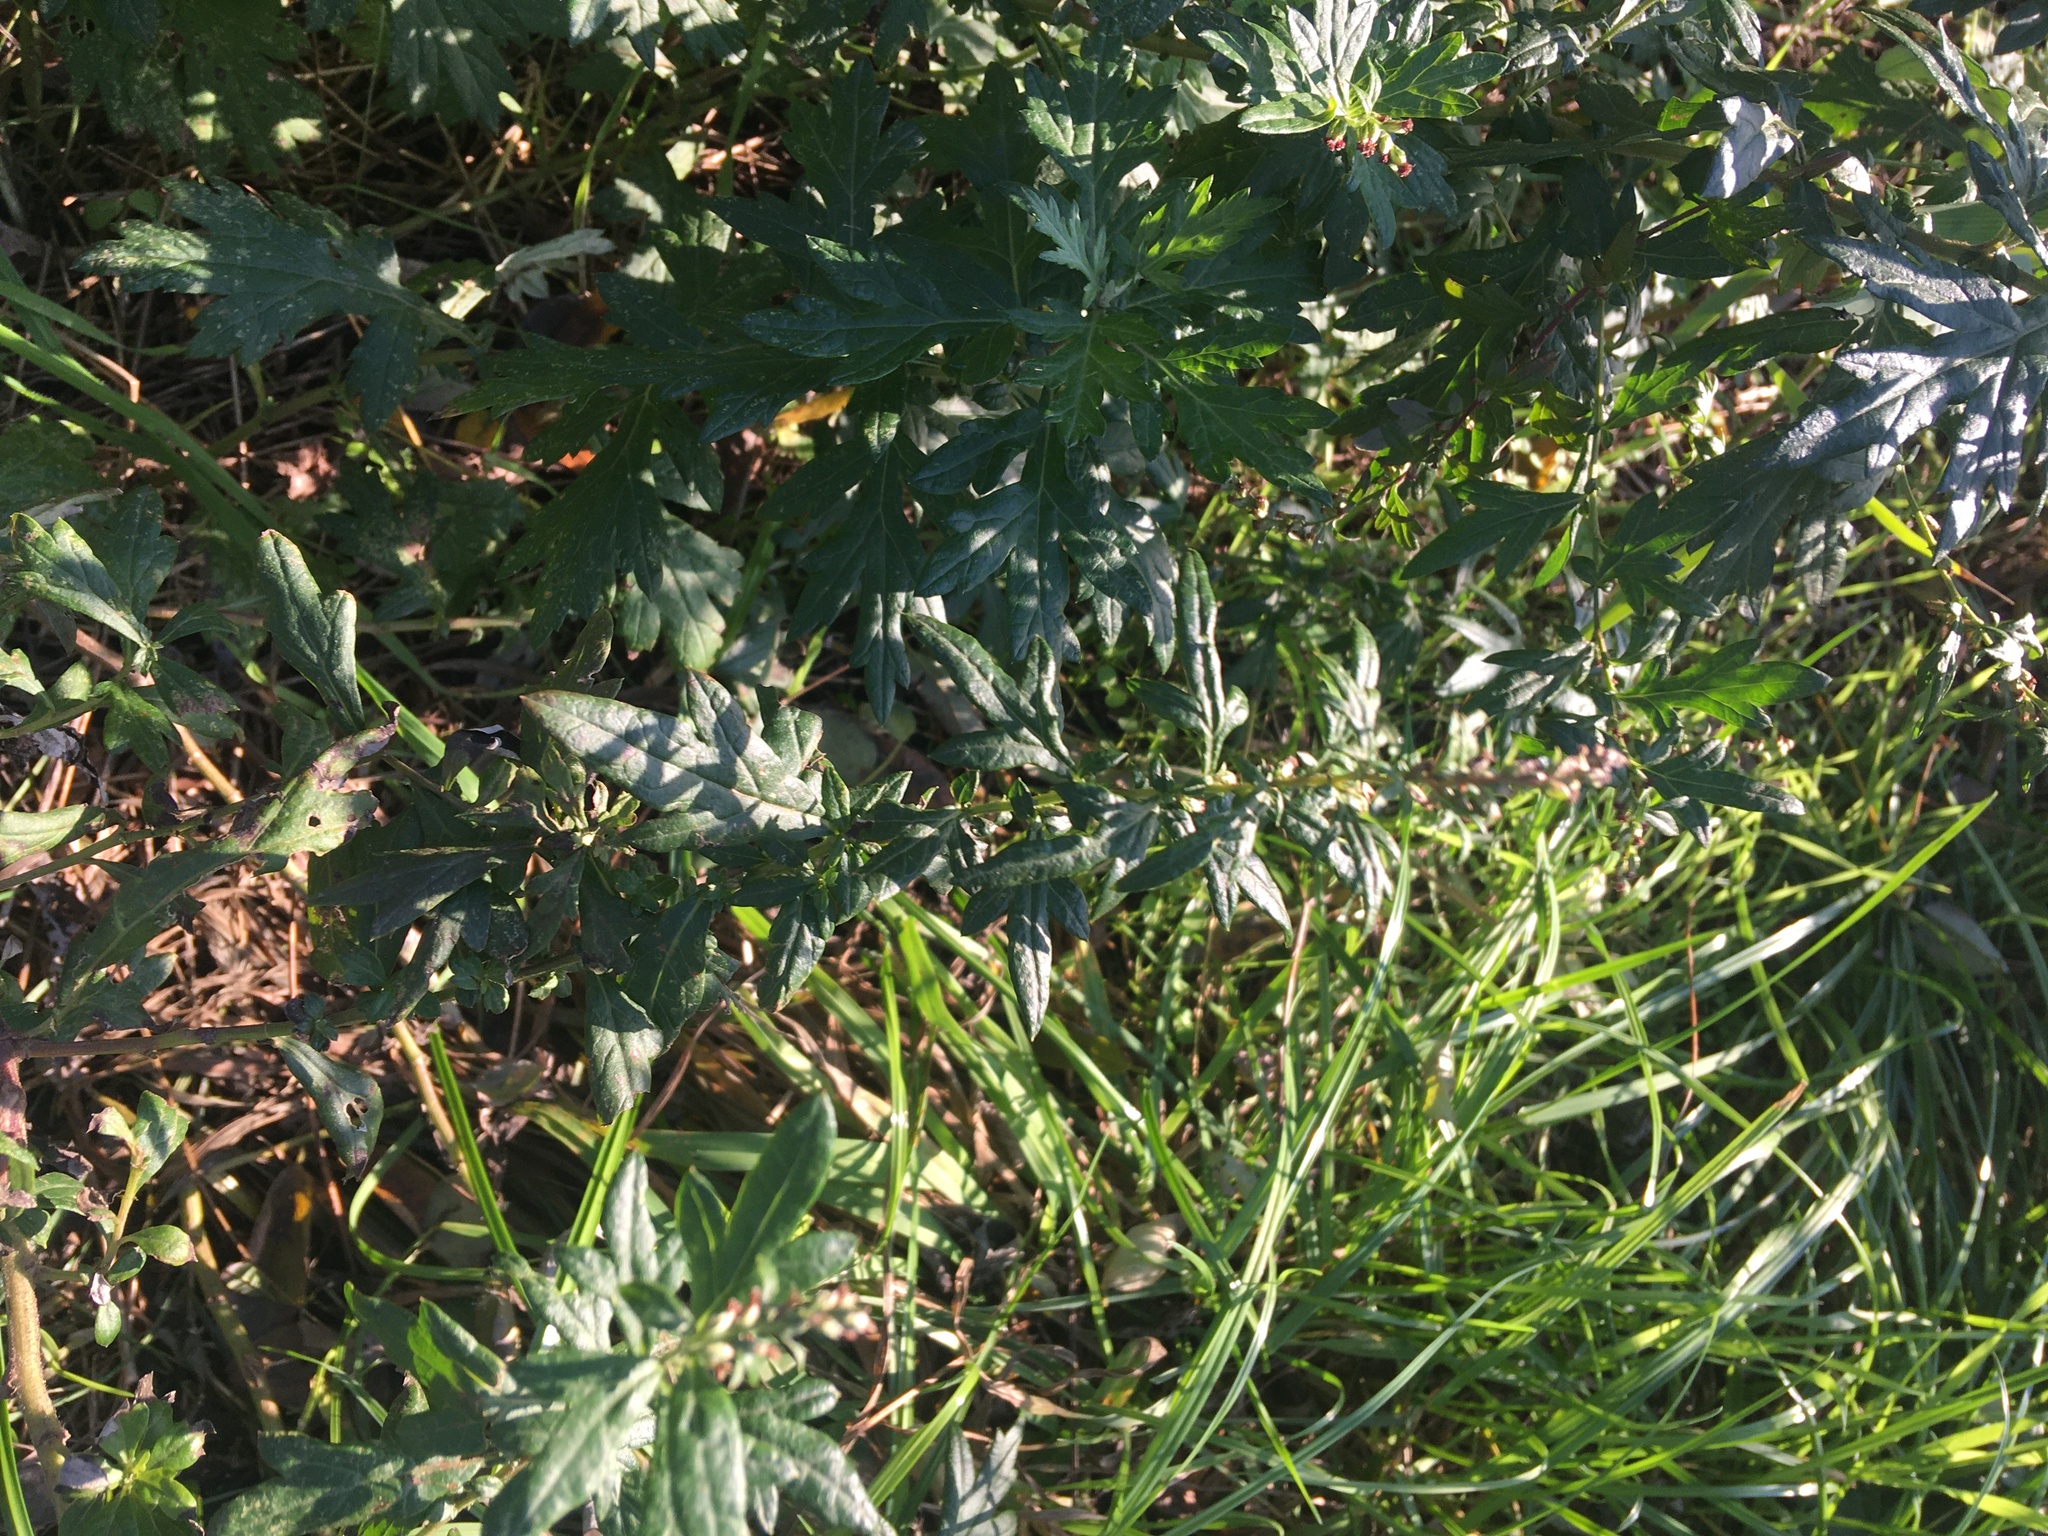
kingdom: Plantae
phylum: Tracheophyta
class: Magnoliopsida
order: Asterales
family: Asteraceae
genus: Artemisia
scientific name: Artemisia vulgaris
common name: Mugwort
